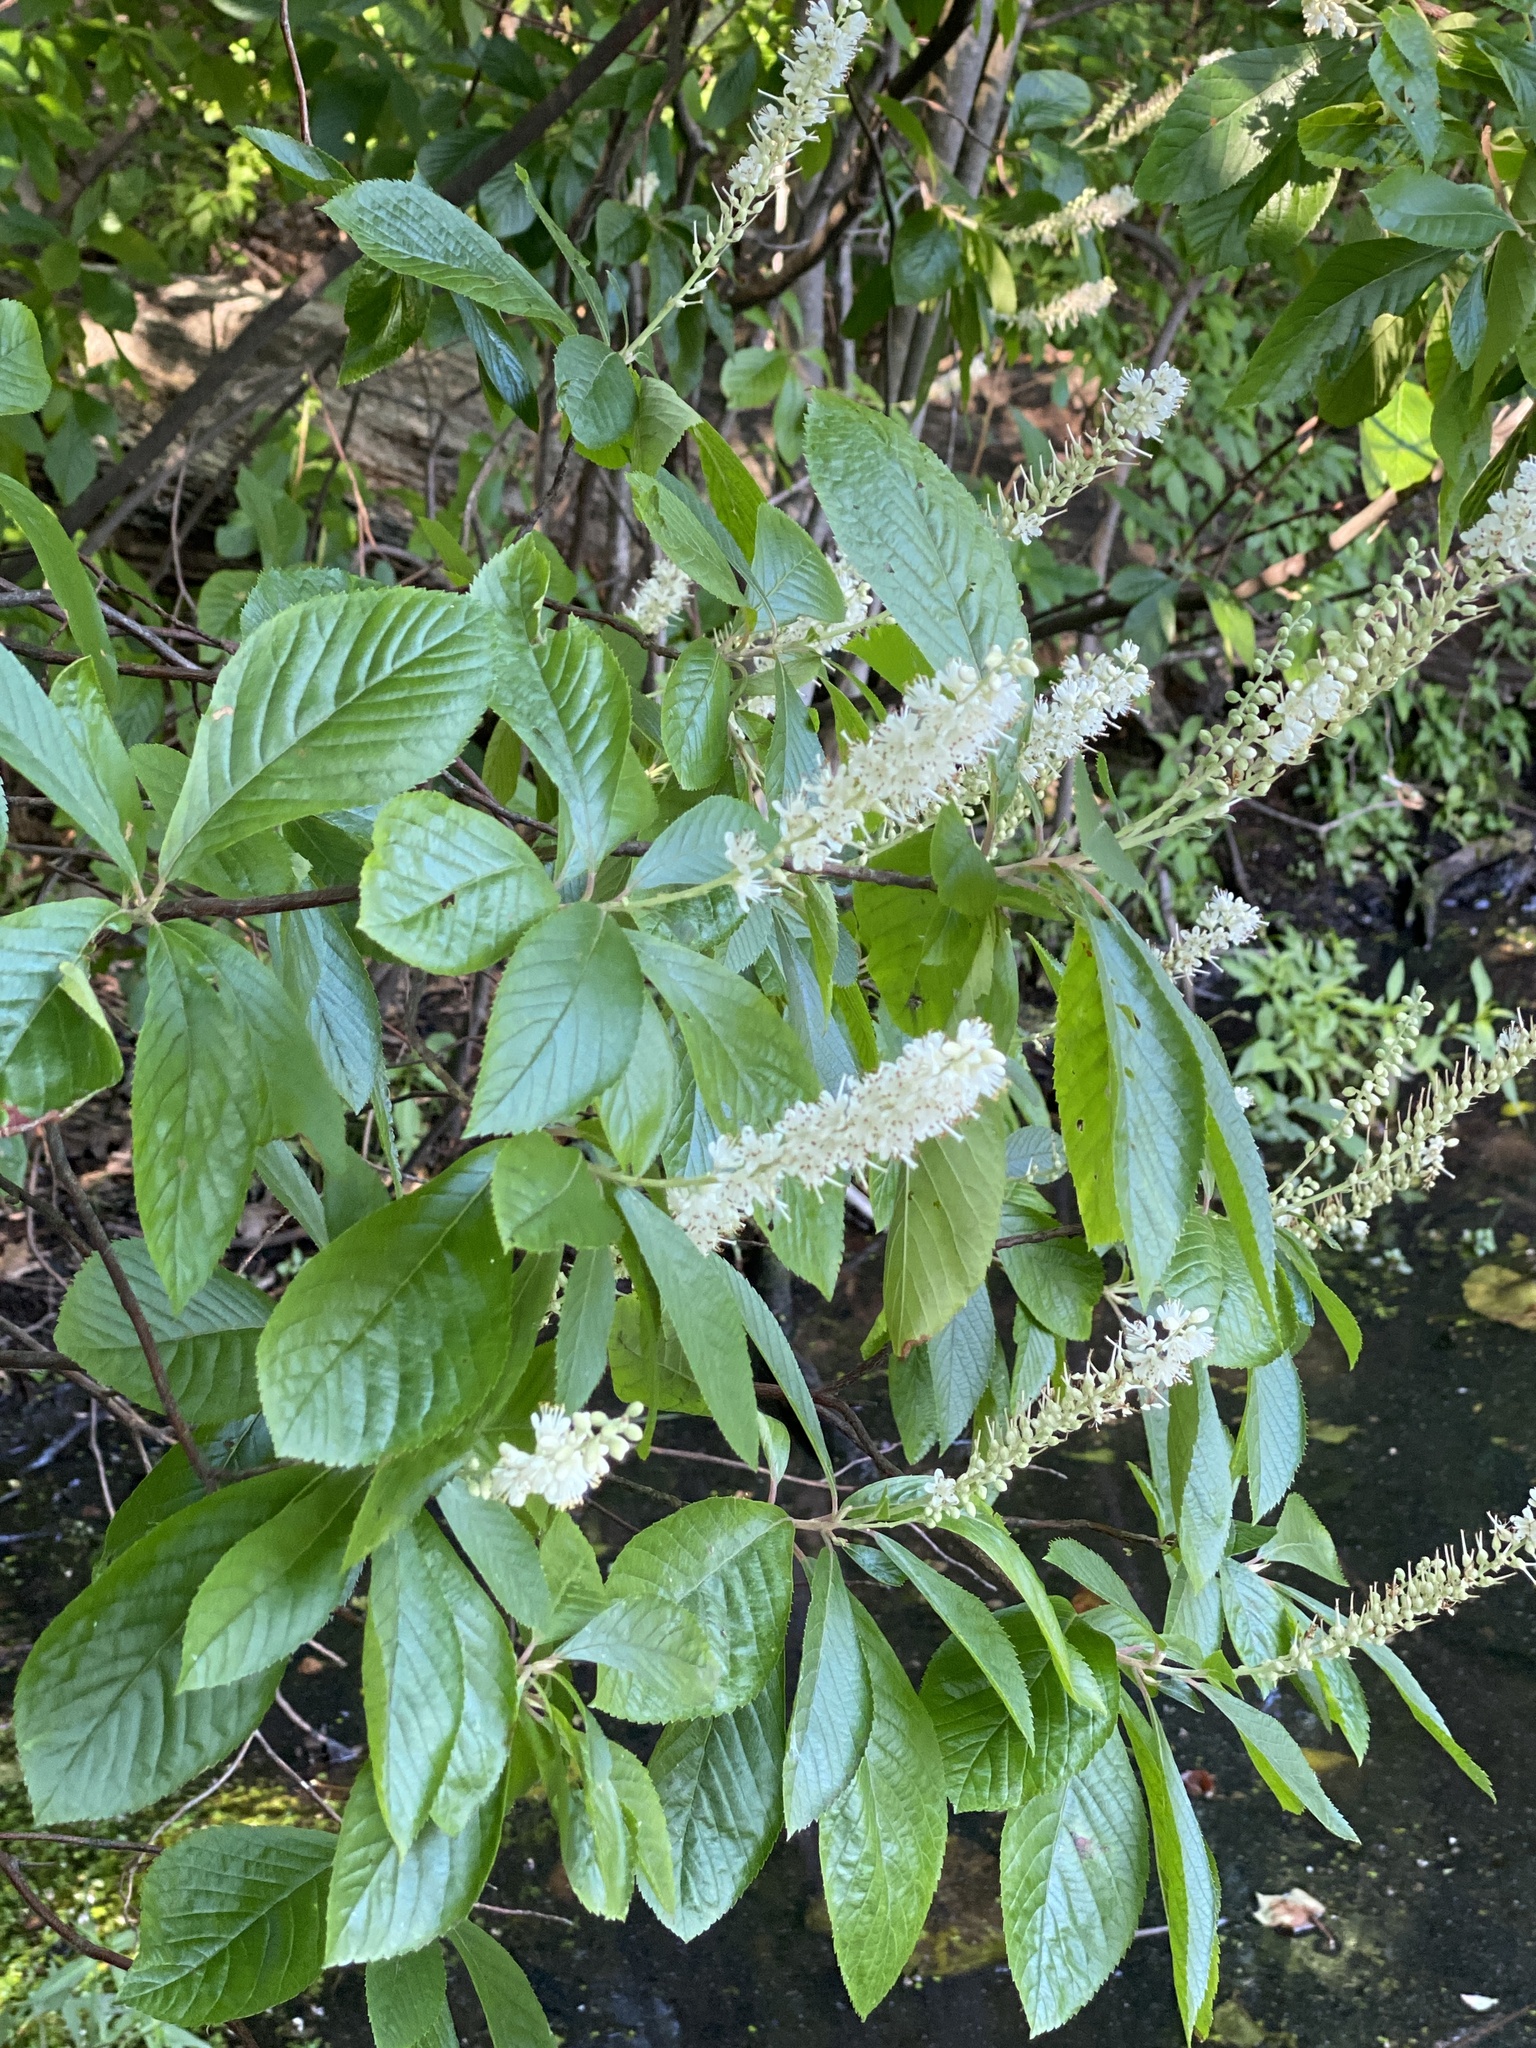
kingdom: Plantae
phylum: Tracheophyta
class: Magnoliopsida
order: Ericales
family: Clethraceae
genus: Clethra
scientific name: Clethra alnifolia
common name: Sweet pepperbush
